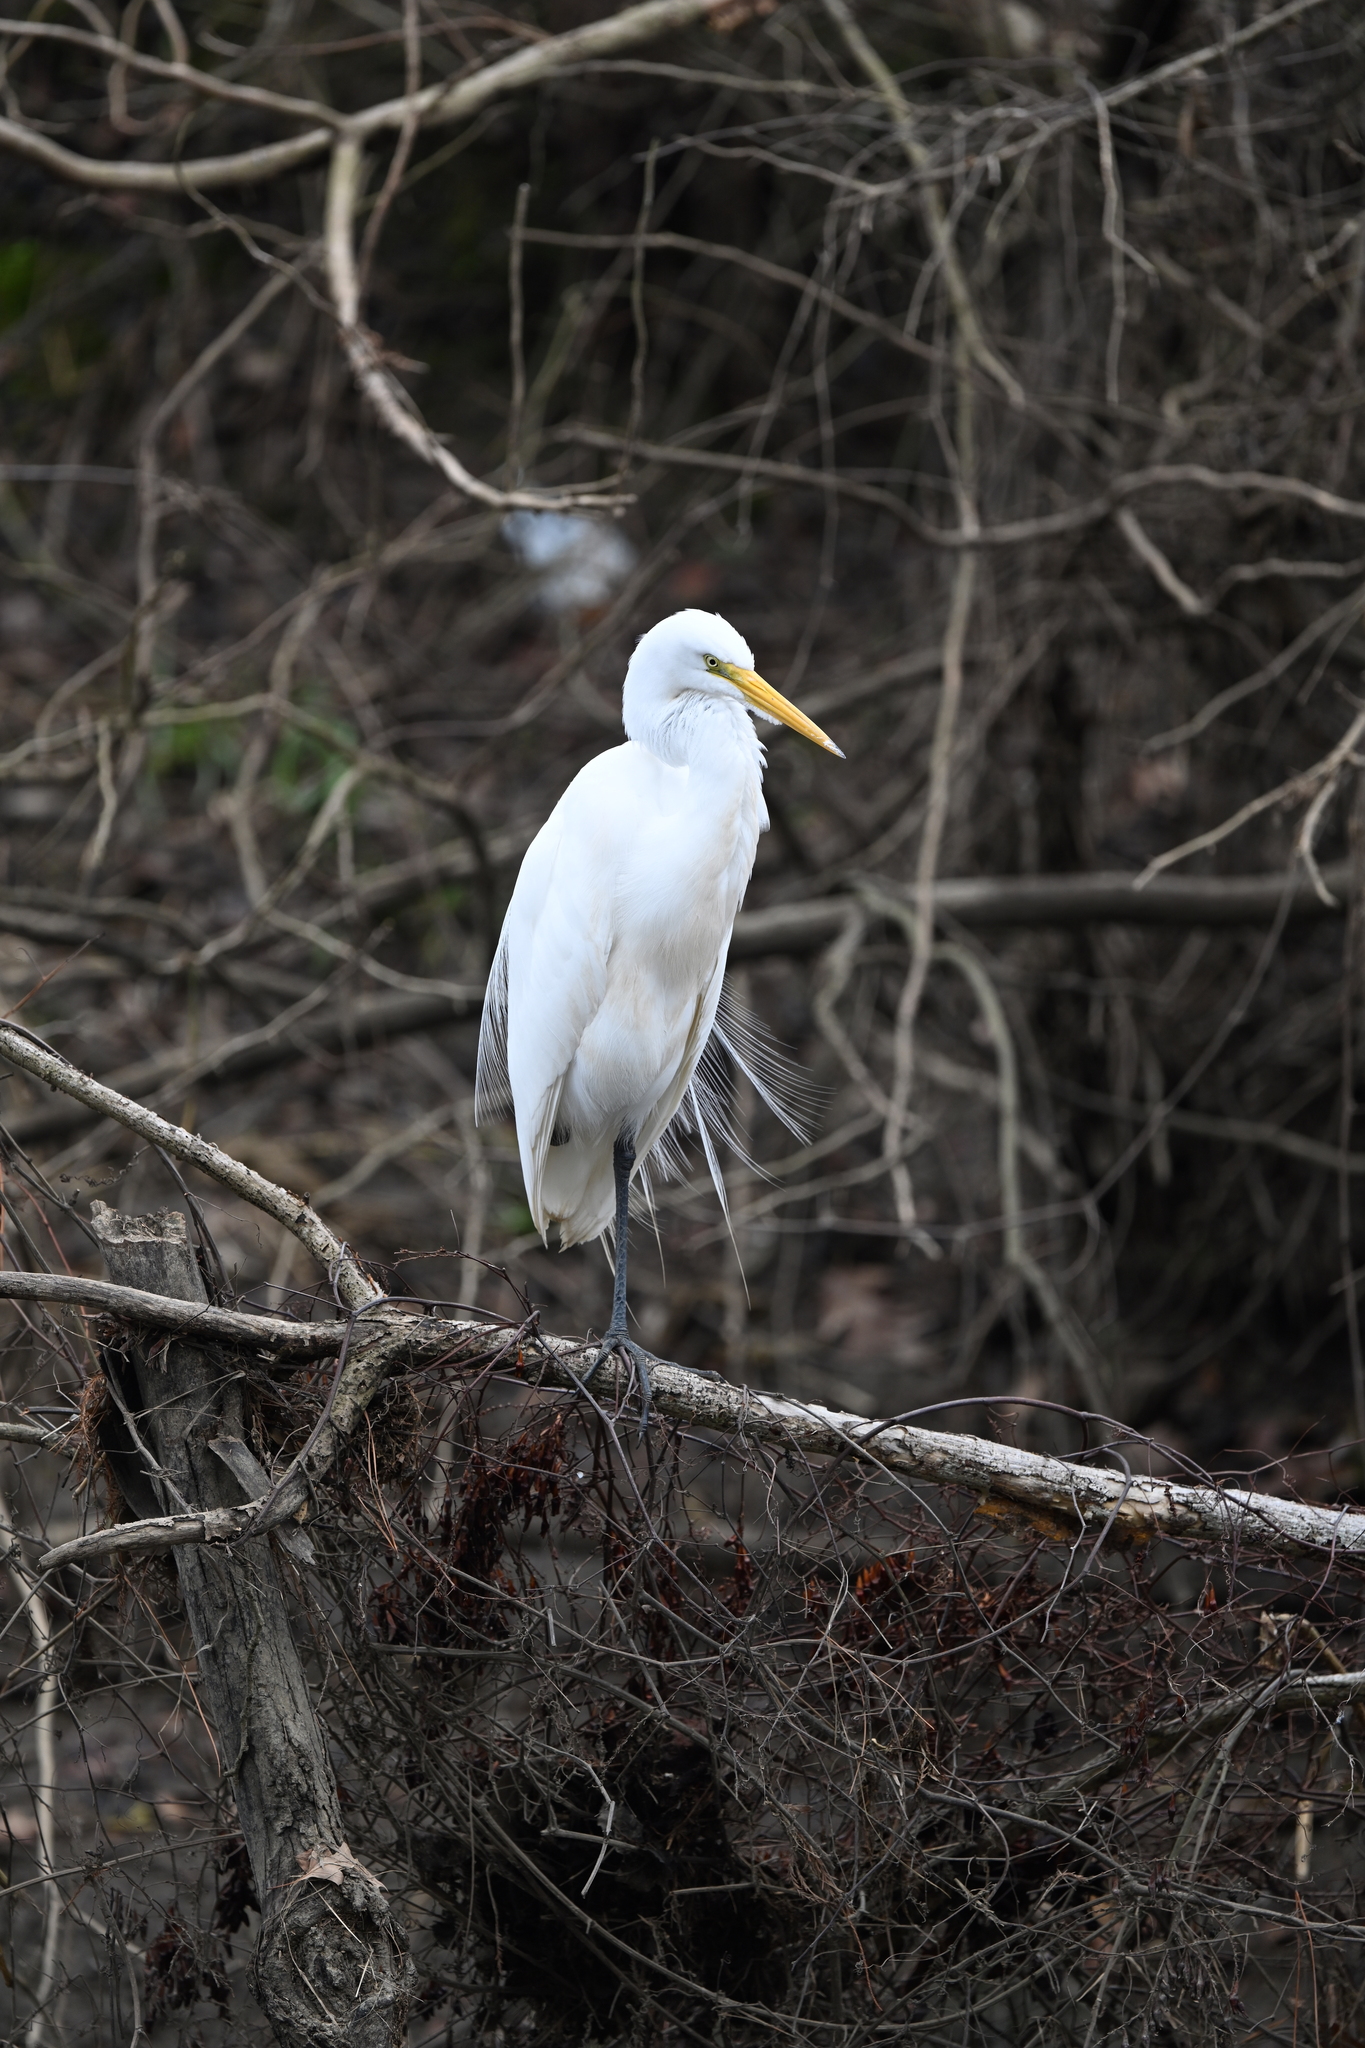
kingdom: Animalia
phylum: Chordata
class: Aves
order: Pelecaniformes
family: Ardeidae
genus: Ardea
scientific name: Ardea alba
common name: Great egret
